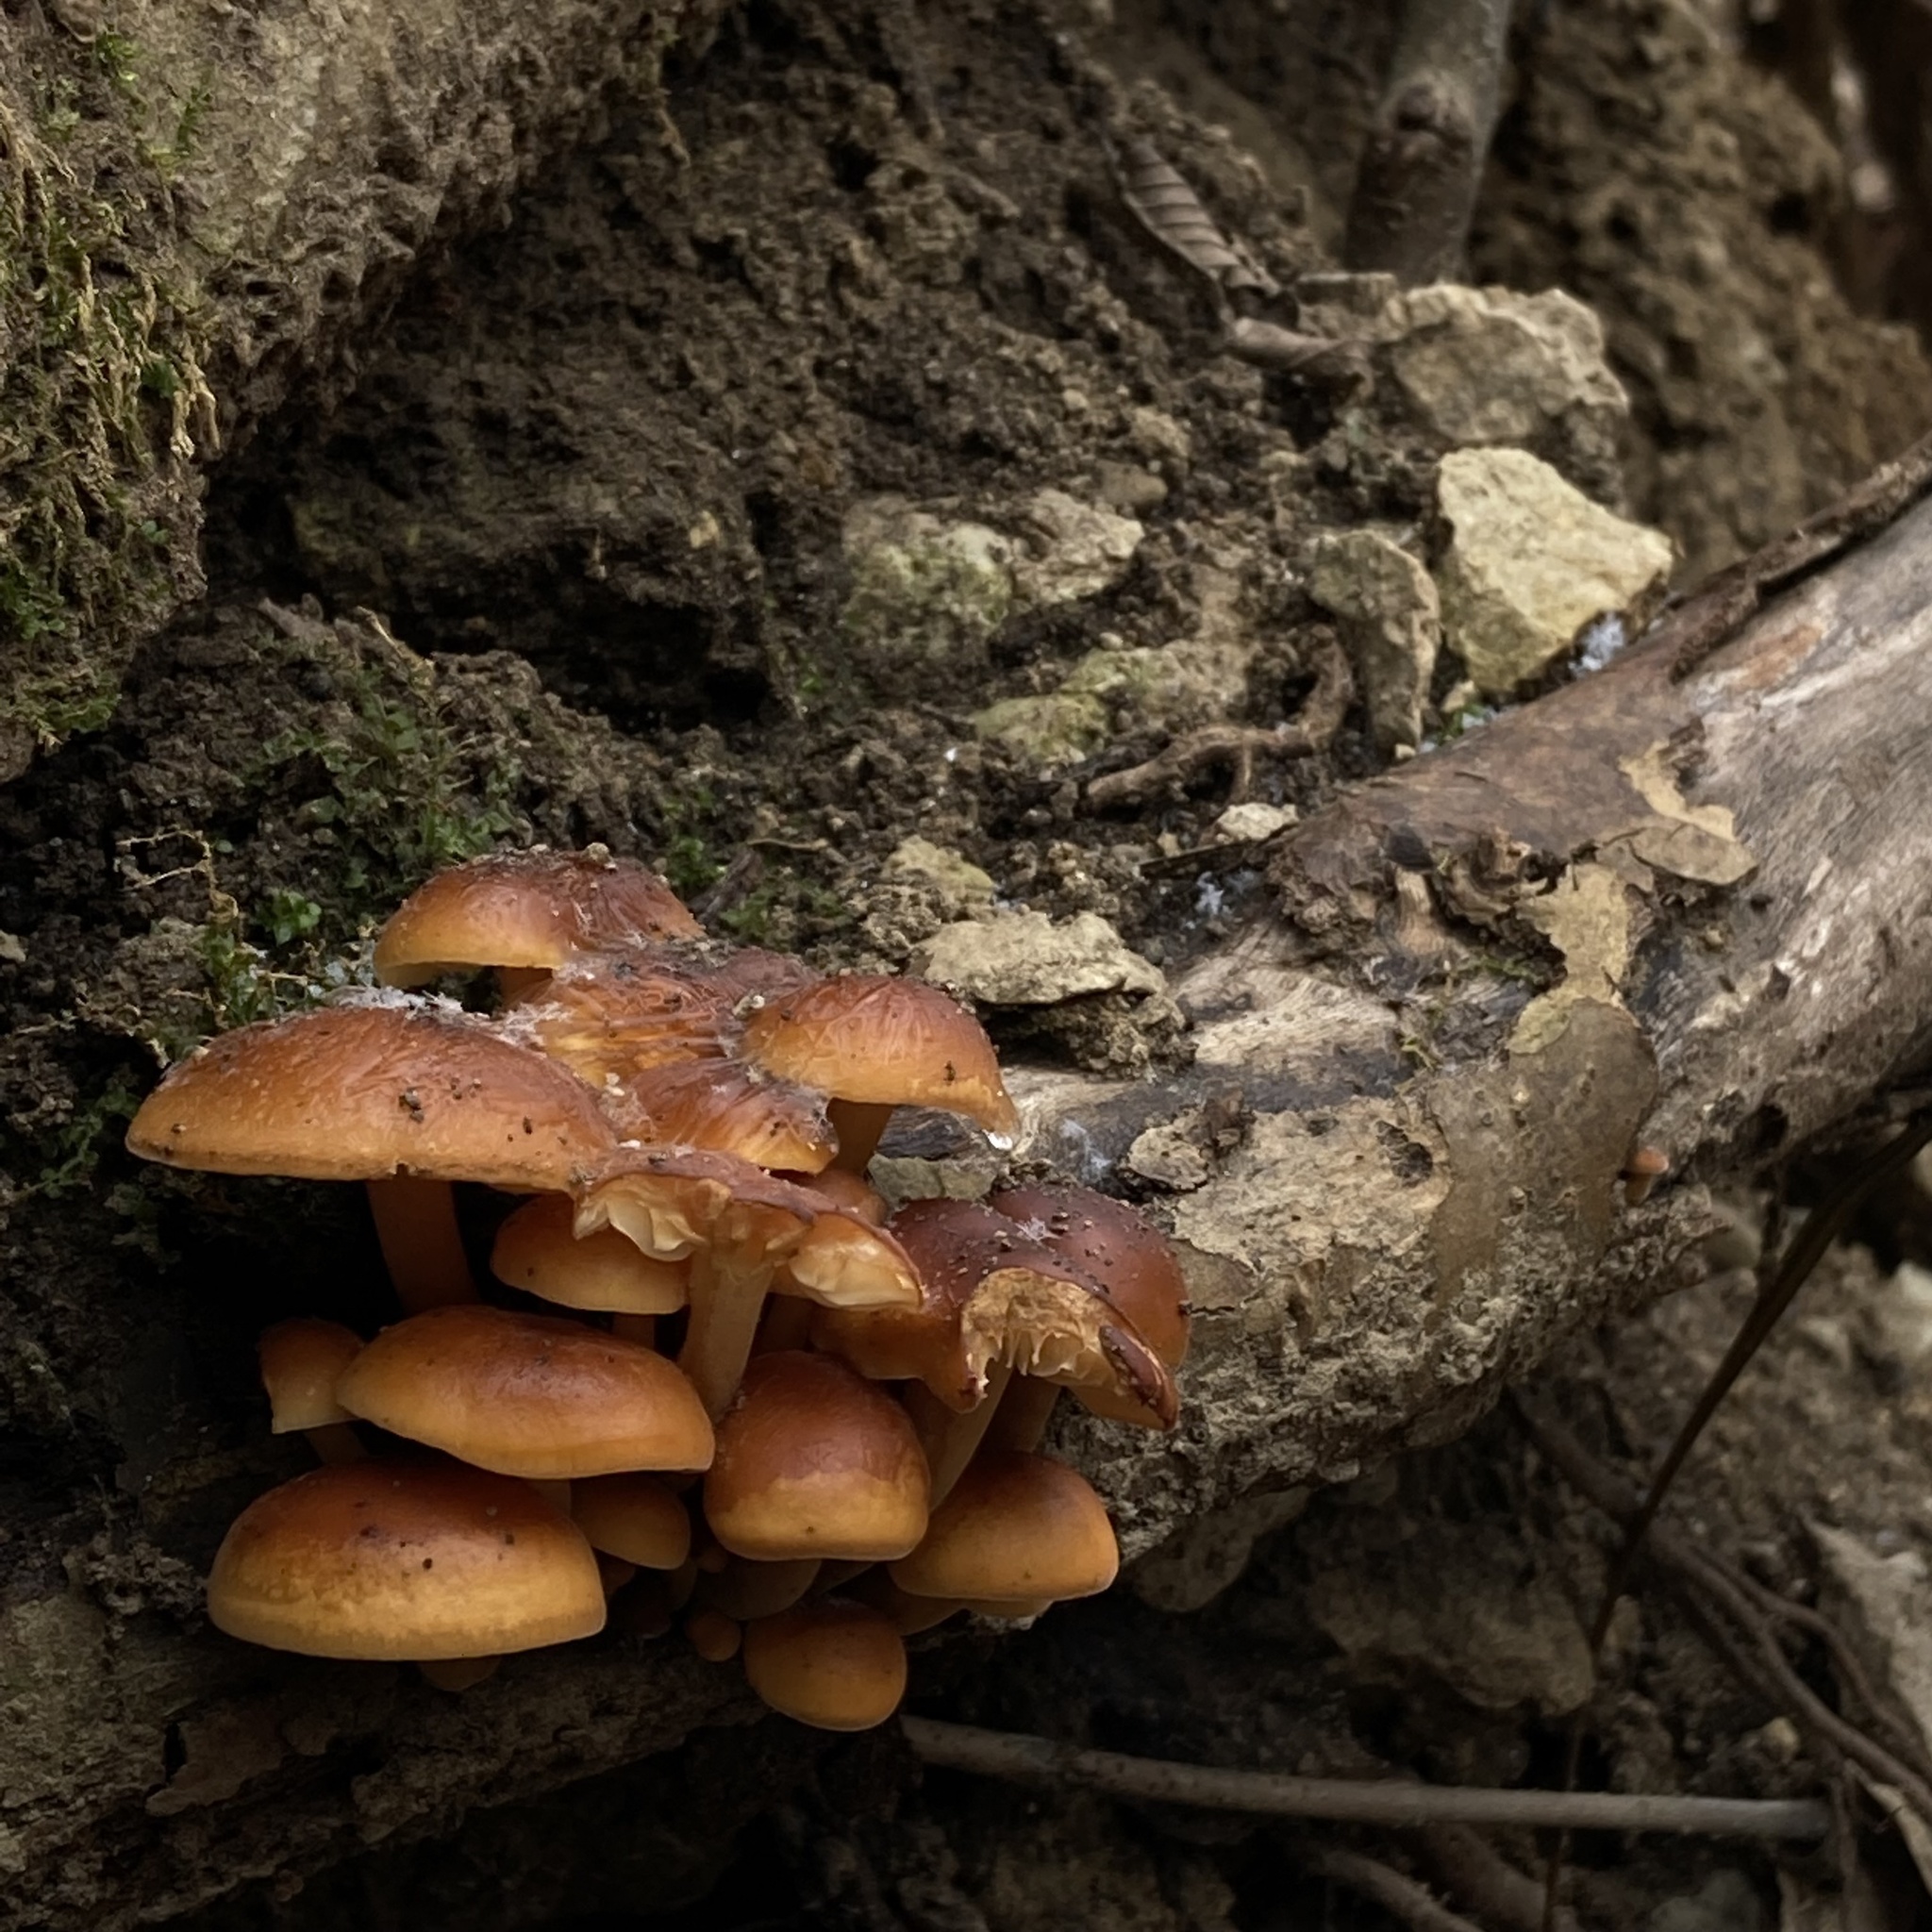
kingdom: Fungi
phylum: Basidiomycota
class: Agaricomycetes
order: Agaricales
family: Physalacriaceae
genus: Flammulina
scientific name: Flammulina velutipes
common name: Velvet shank
